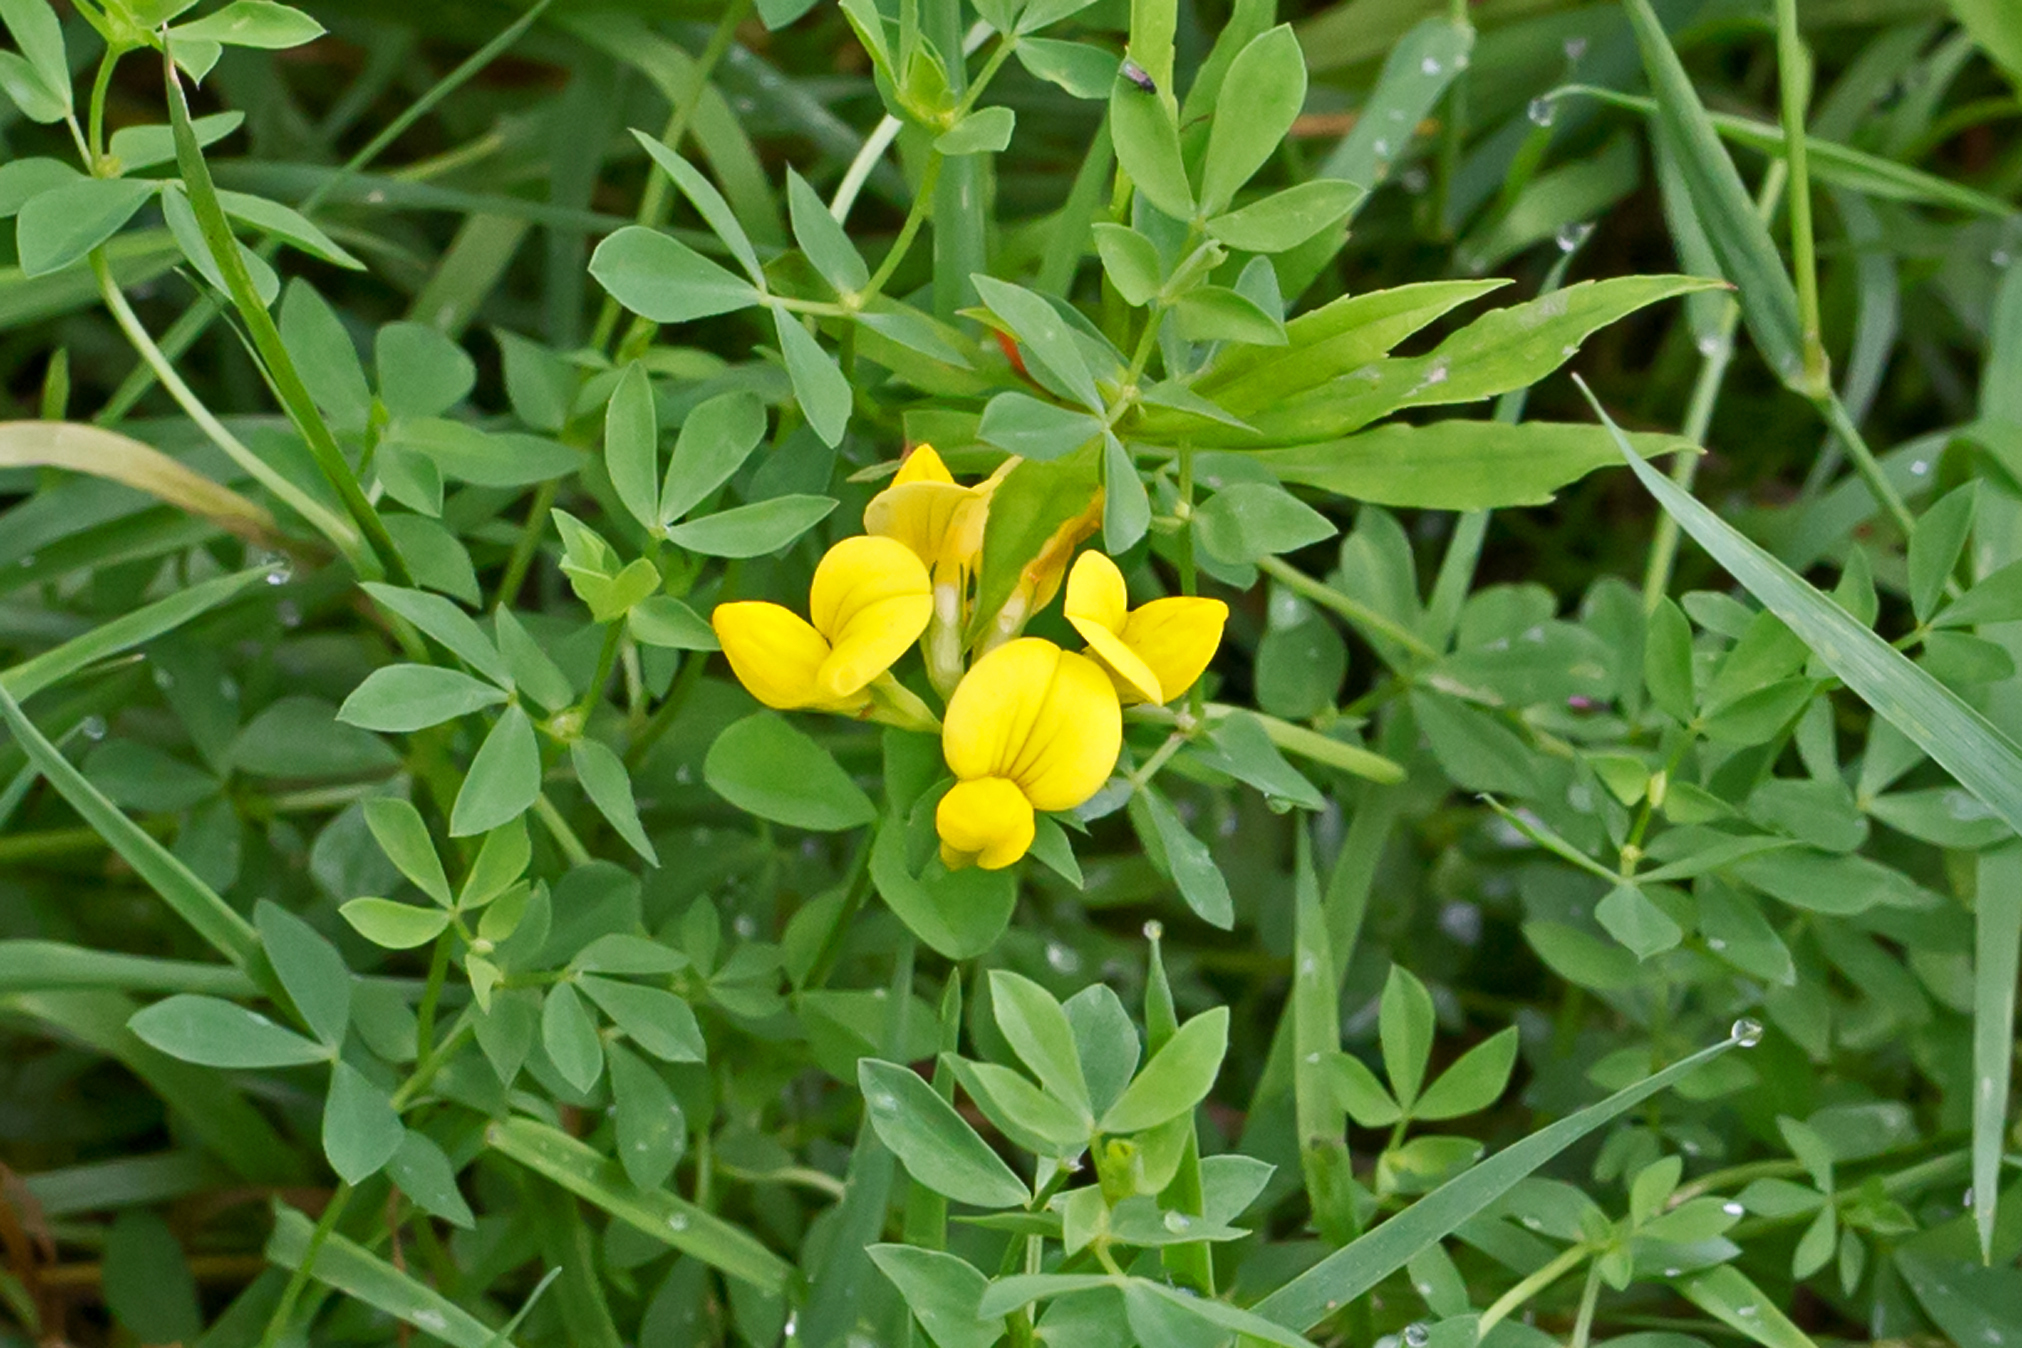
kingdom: Plantae
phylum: Tracheophyta
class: Magnoliopsida
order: Fabales
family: Fabaceae
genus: Lotus
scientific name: Lotus corniculatus
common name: Common bird's-foot-trefoil
